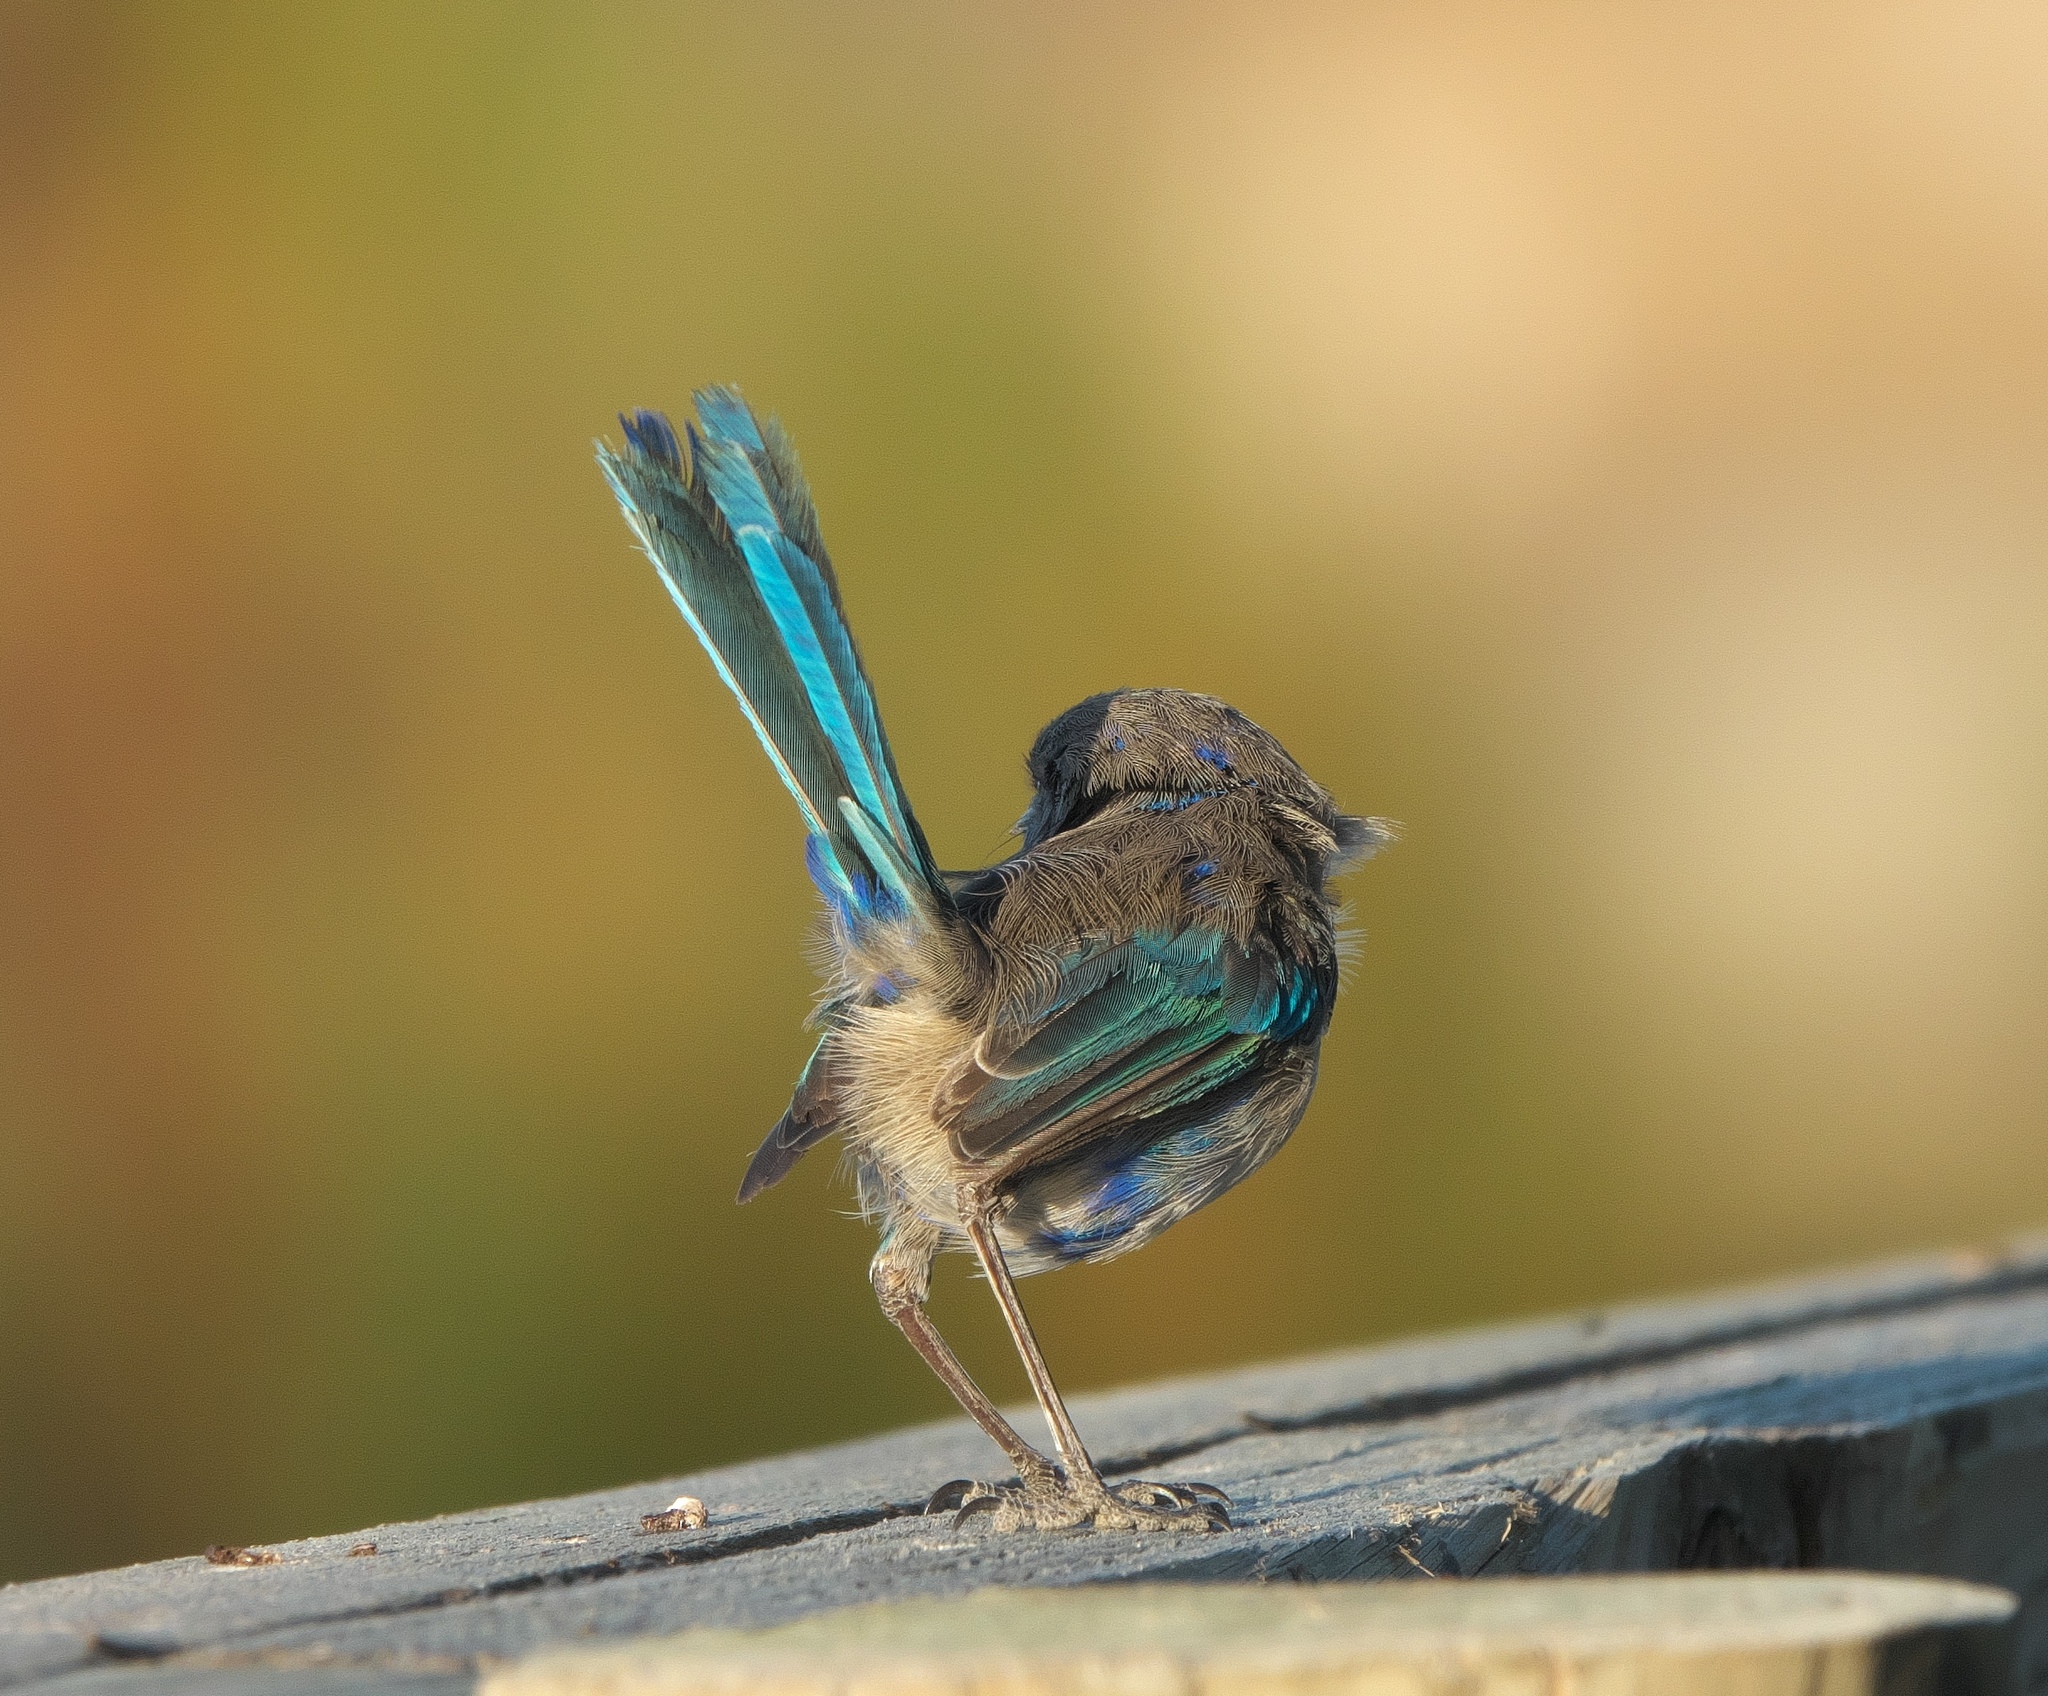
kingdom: Animalia
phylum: Chordata
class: Aves
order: Passeriformes
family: Maluridae
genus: Malurus
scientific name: Malurus splendens
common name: Splendid fairywren
